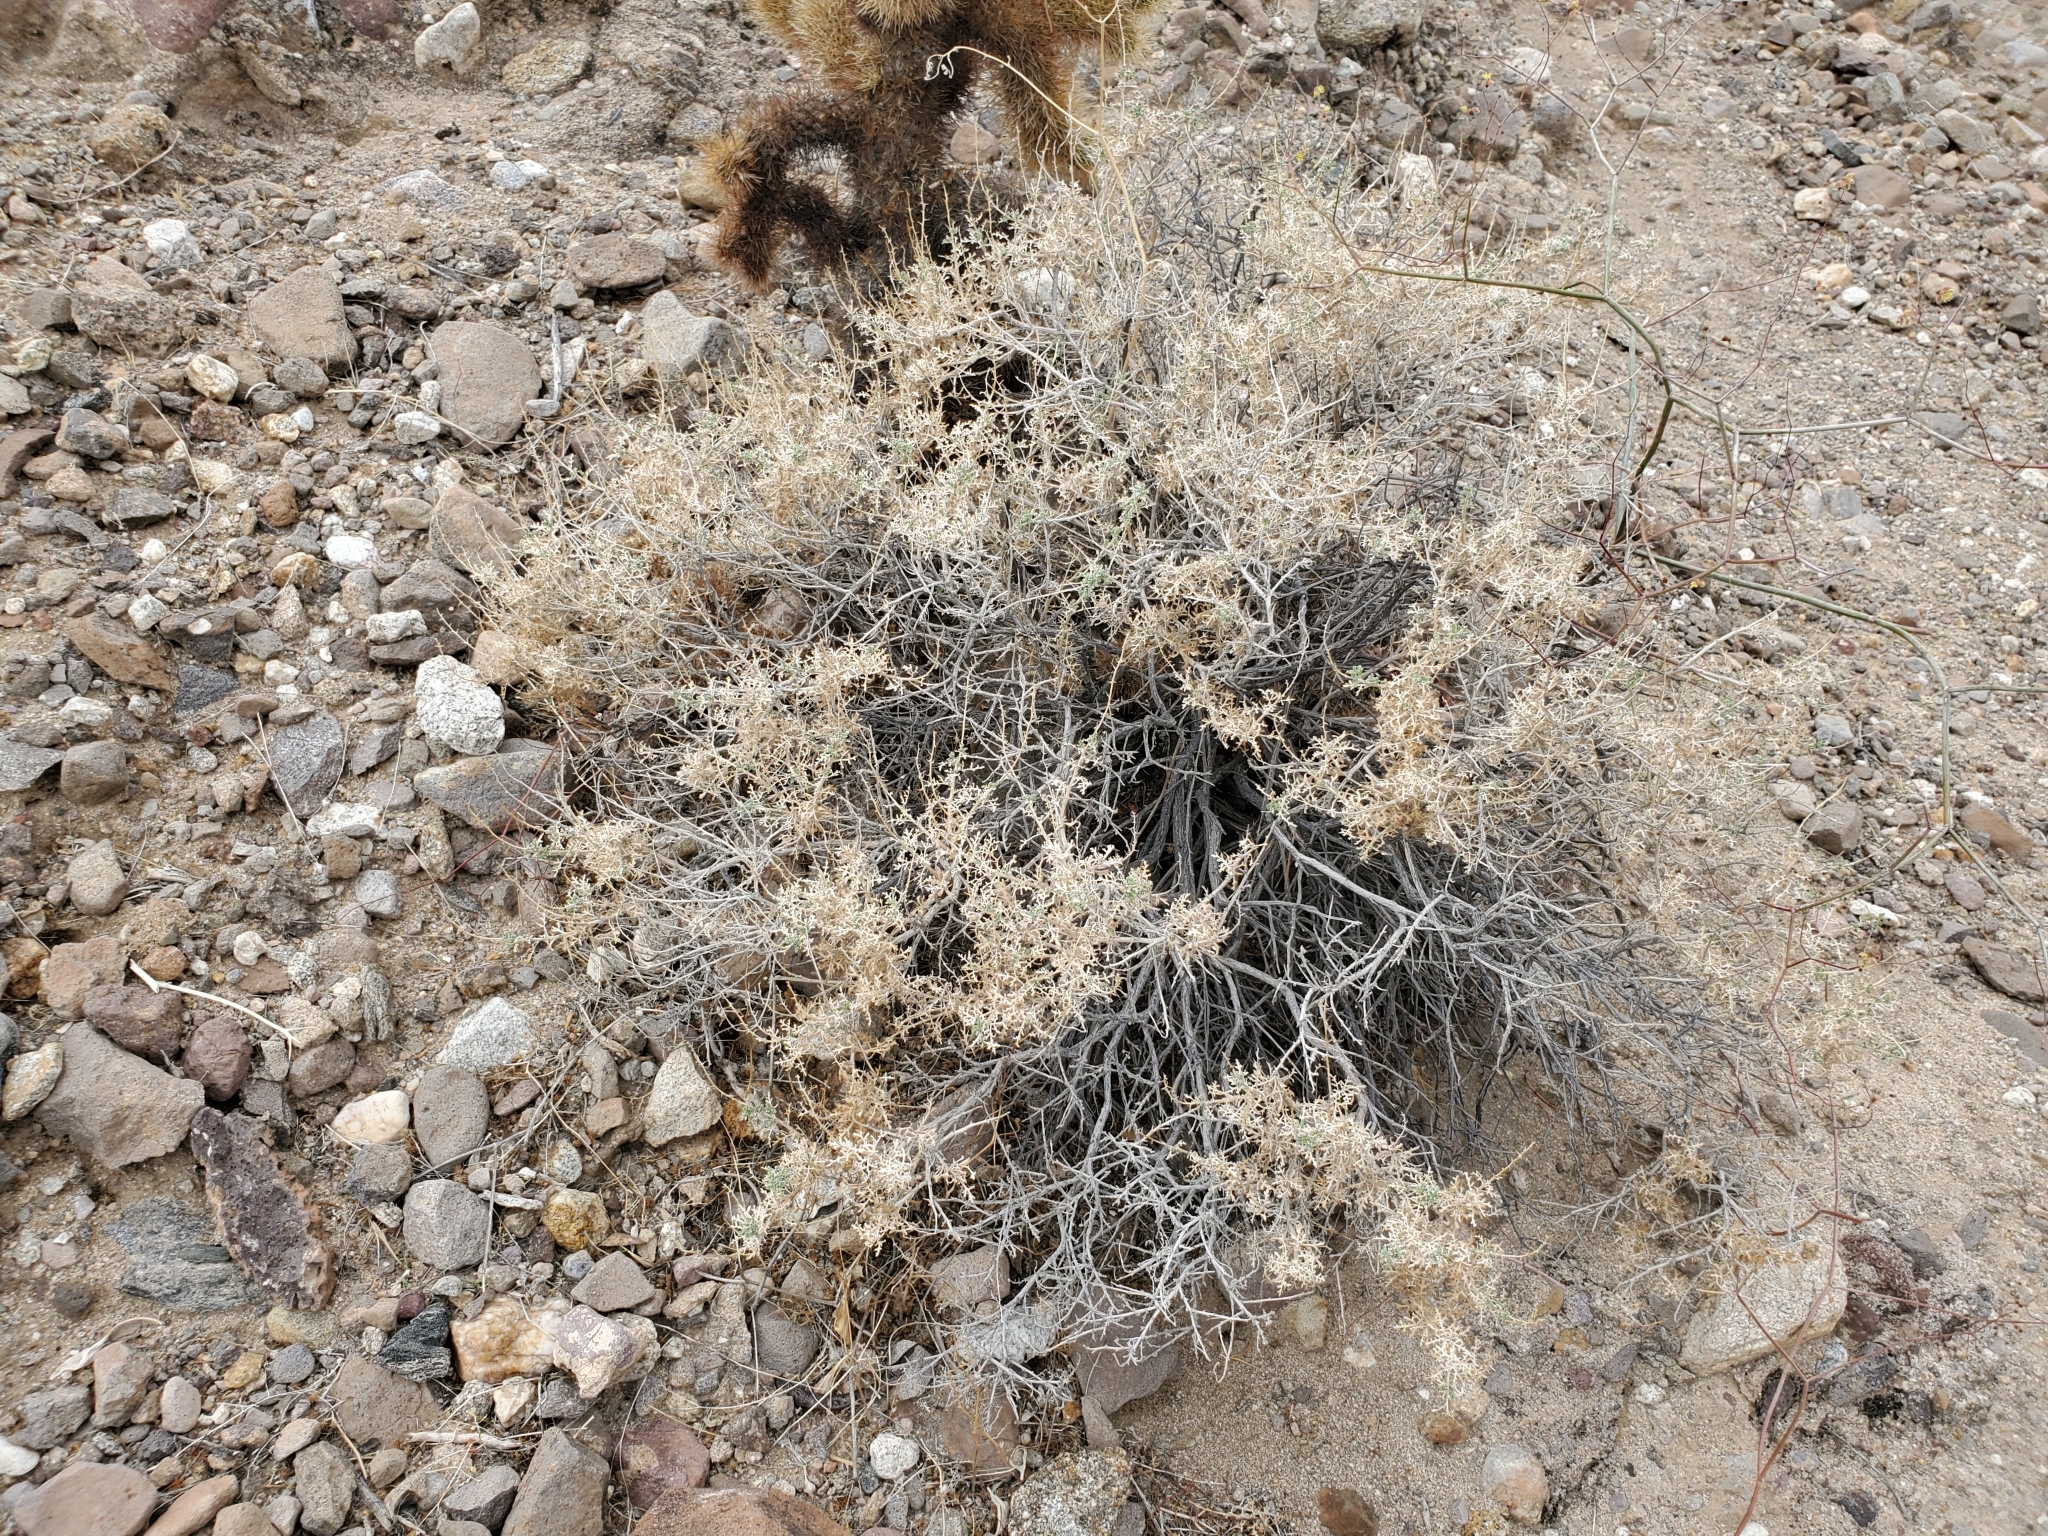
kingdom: Plantae
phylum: Tracheophyta
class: Magnoliopsida
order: Asterales
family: Asteraceae
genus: Ambrosia
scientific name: Ambrosia dumosa
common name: Bur-sage
